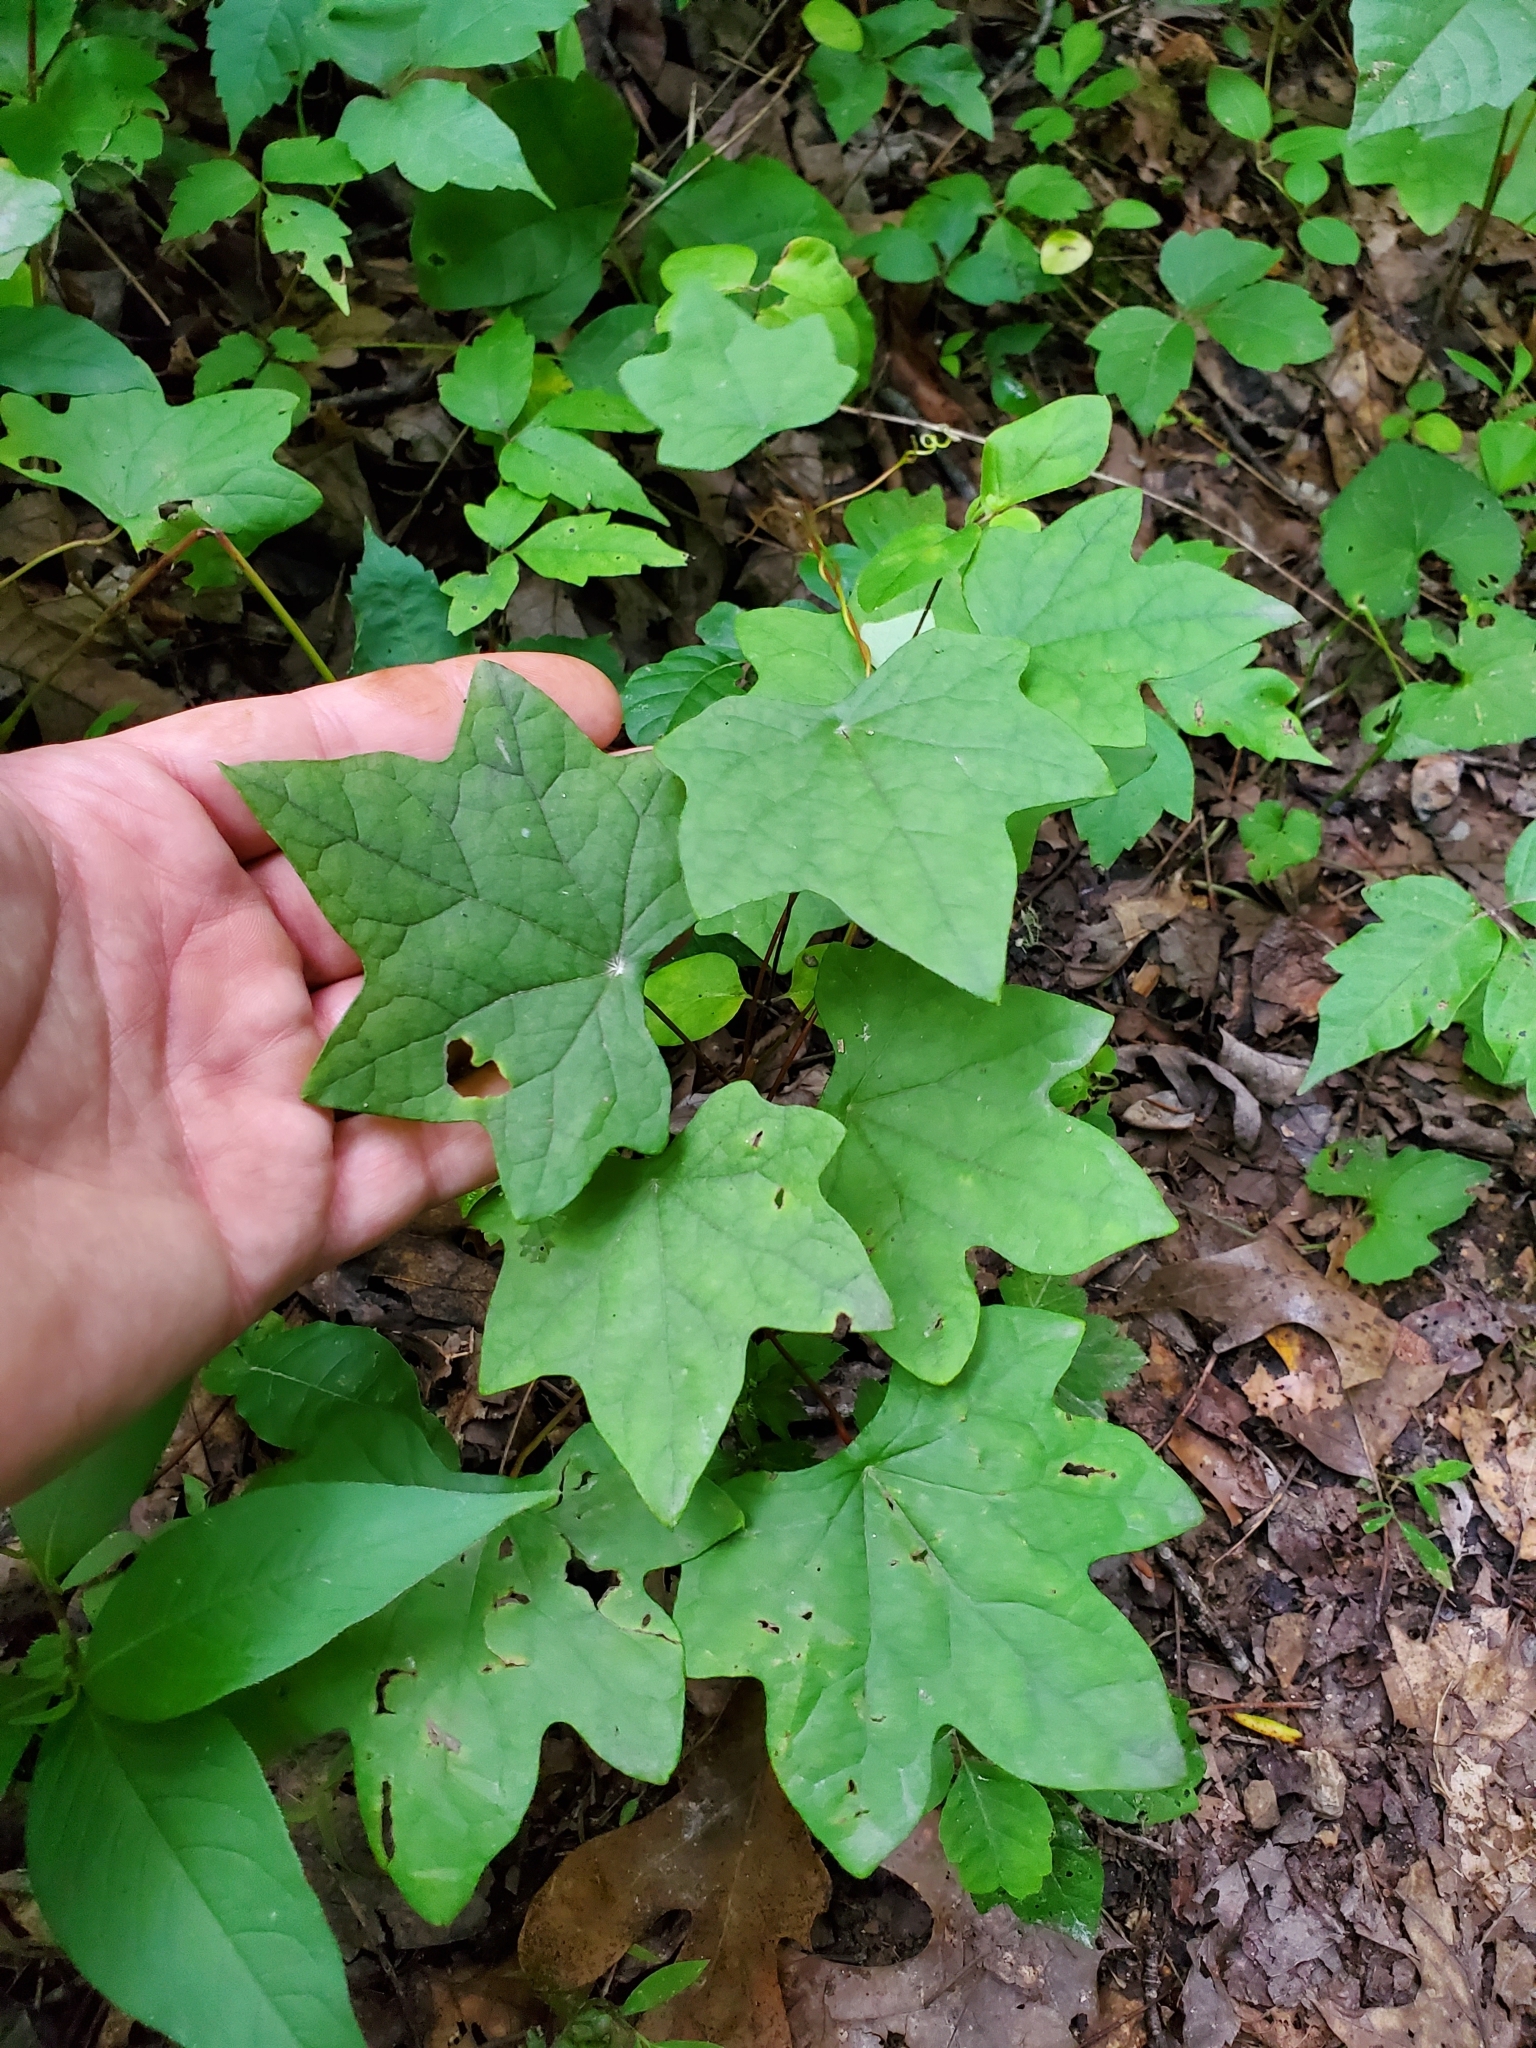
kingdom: Plantae
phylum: Tracheophyta
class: Magnoliopsida
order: Ranunculales
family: Menispermaceae
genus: Menispermum
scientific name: Menispermum canadense
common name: Moonseed
